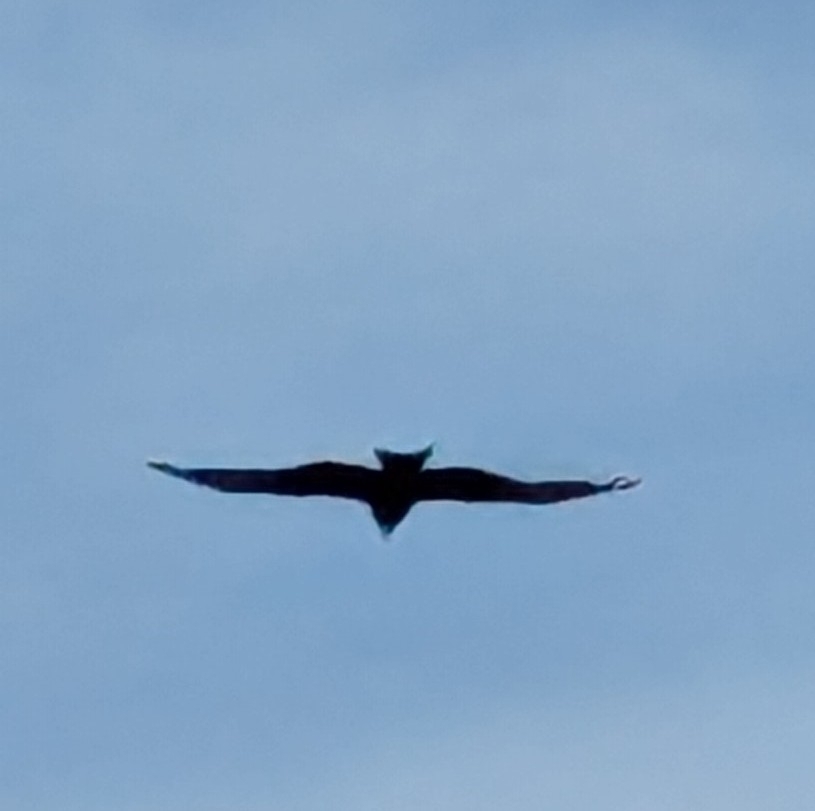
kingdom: Animalia
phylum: Chordata
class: Aves
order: Accipitriformes
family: Accipitridae
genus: Milvus
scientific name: Milvus migrans
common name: Black kite
